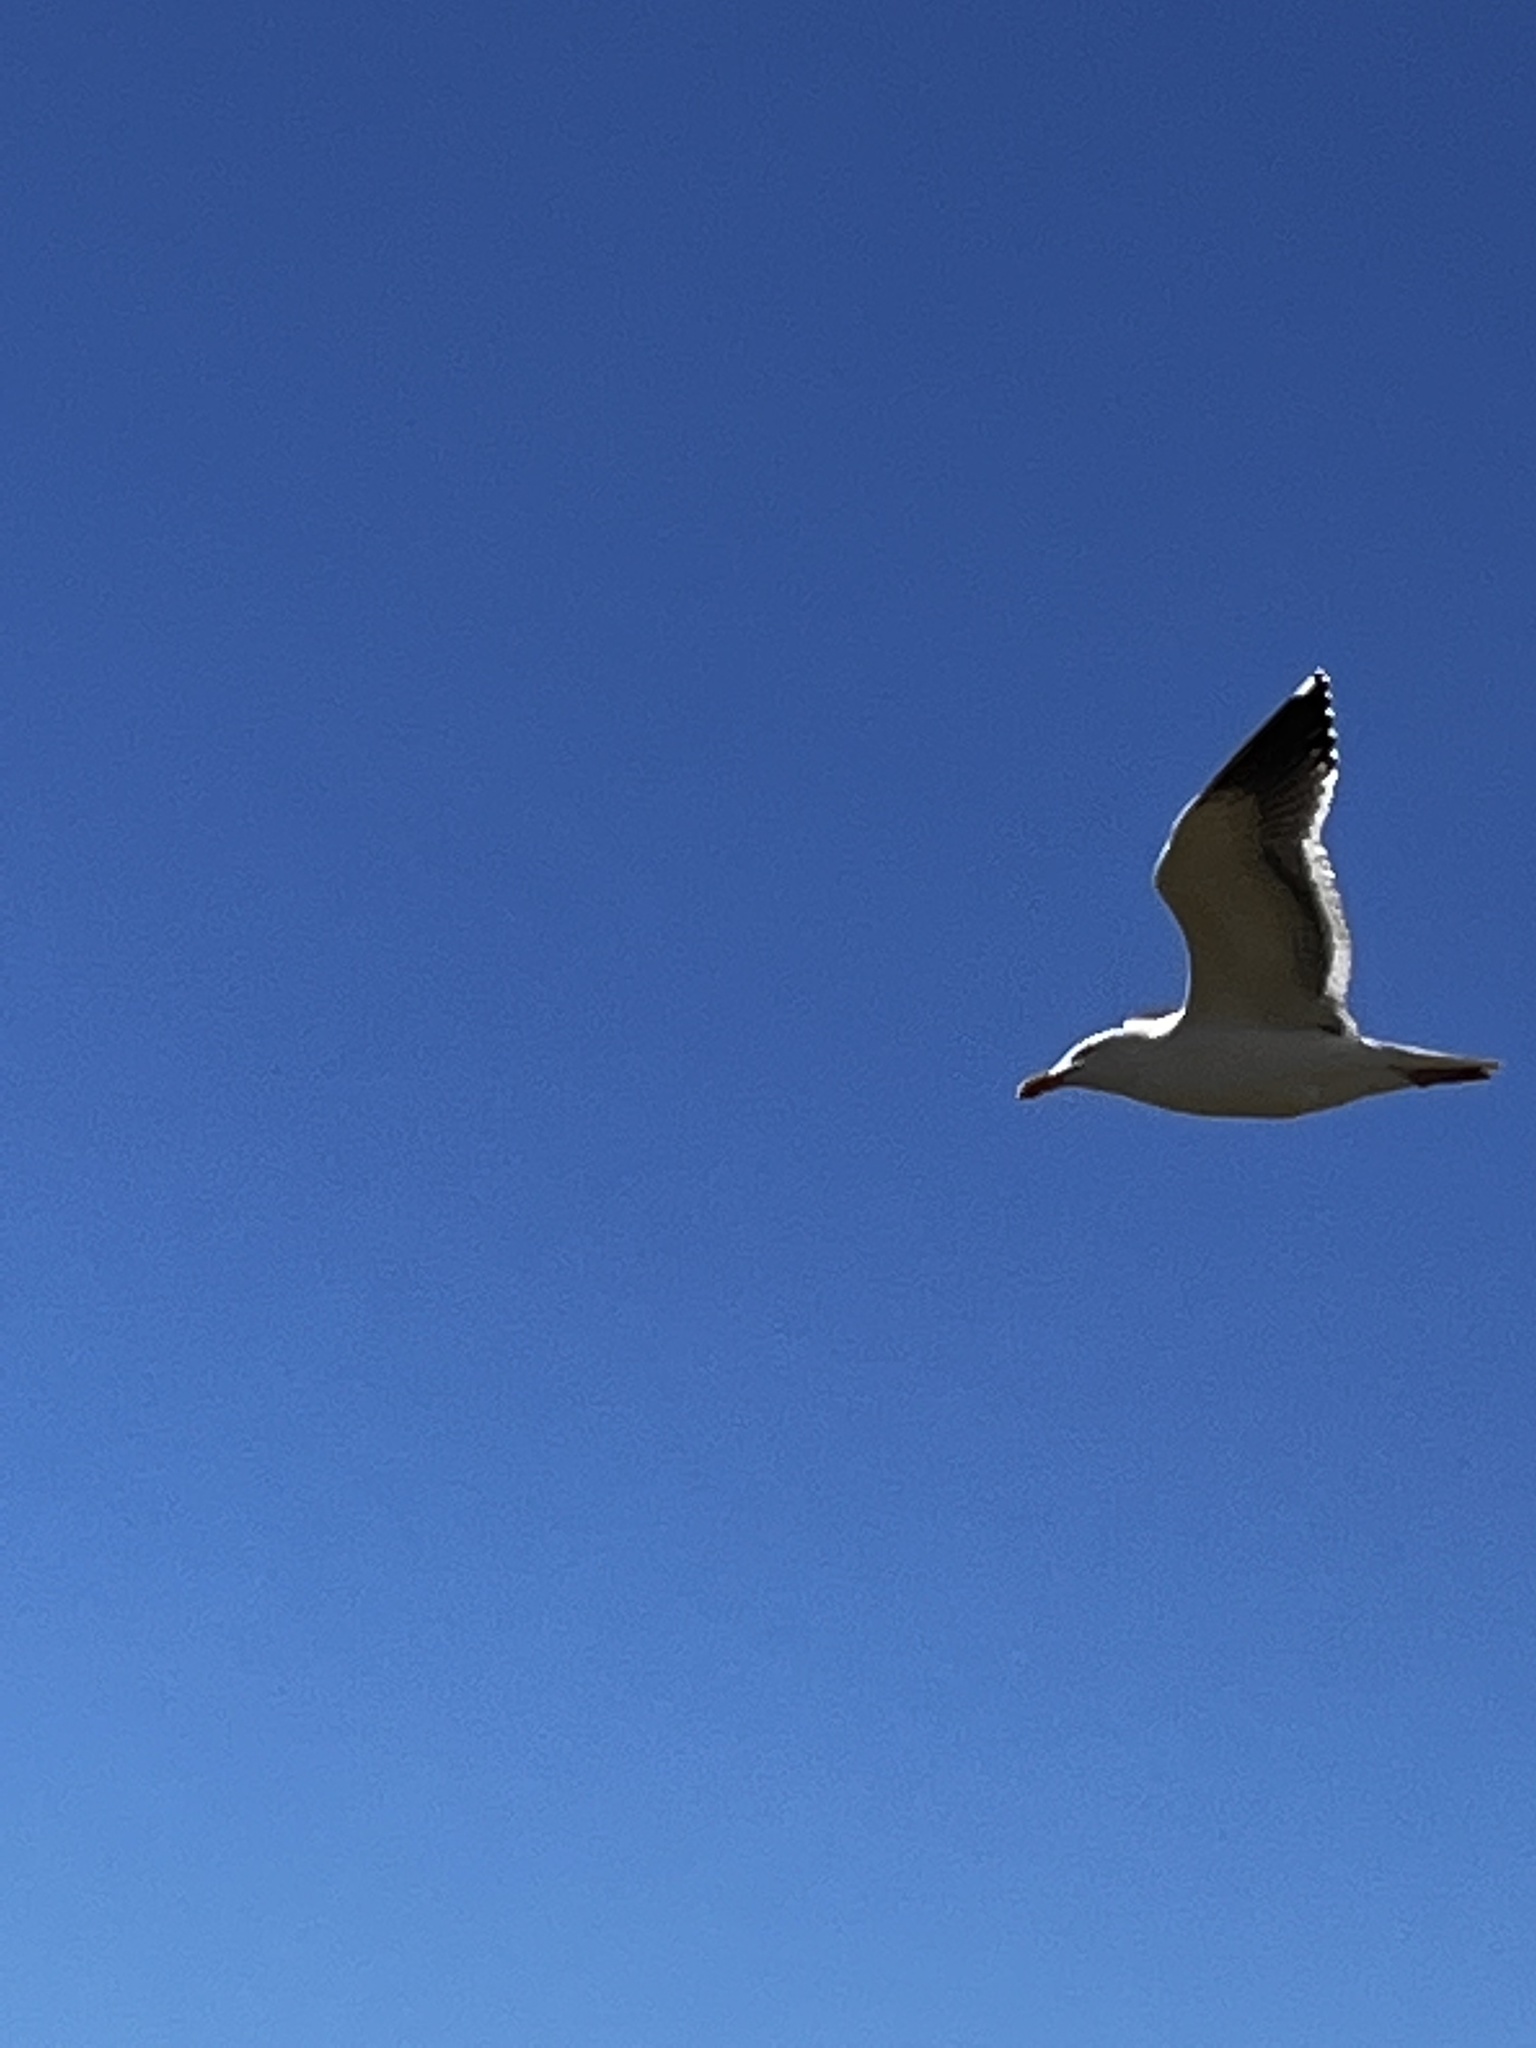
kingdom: Animalia
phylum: Chordata
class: Aves
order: Charadriiformes
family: Laridae
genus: Larus
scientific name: Larus occidentalis
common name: Western gull
